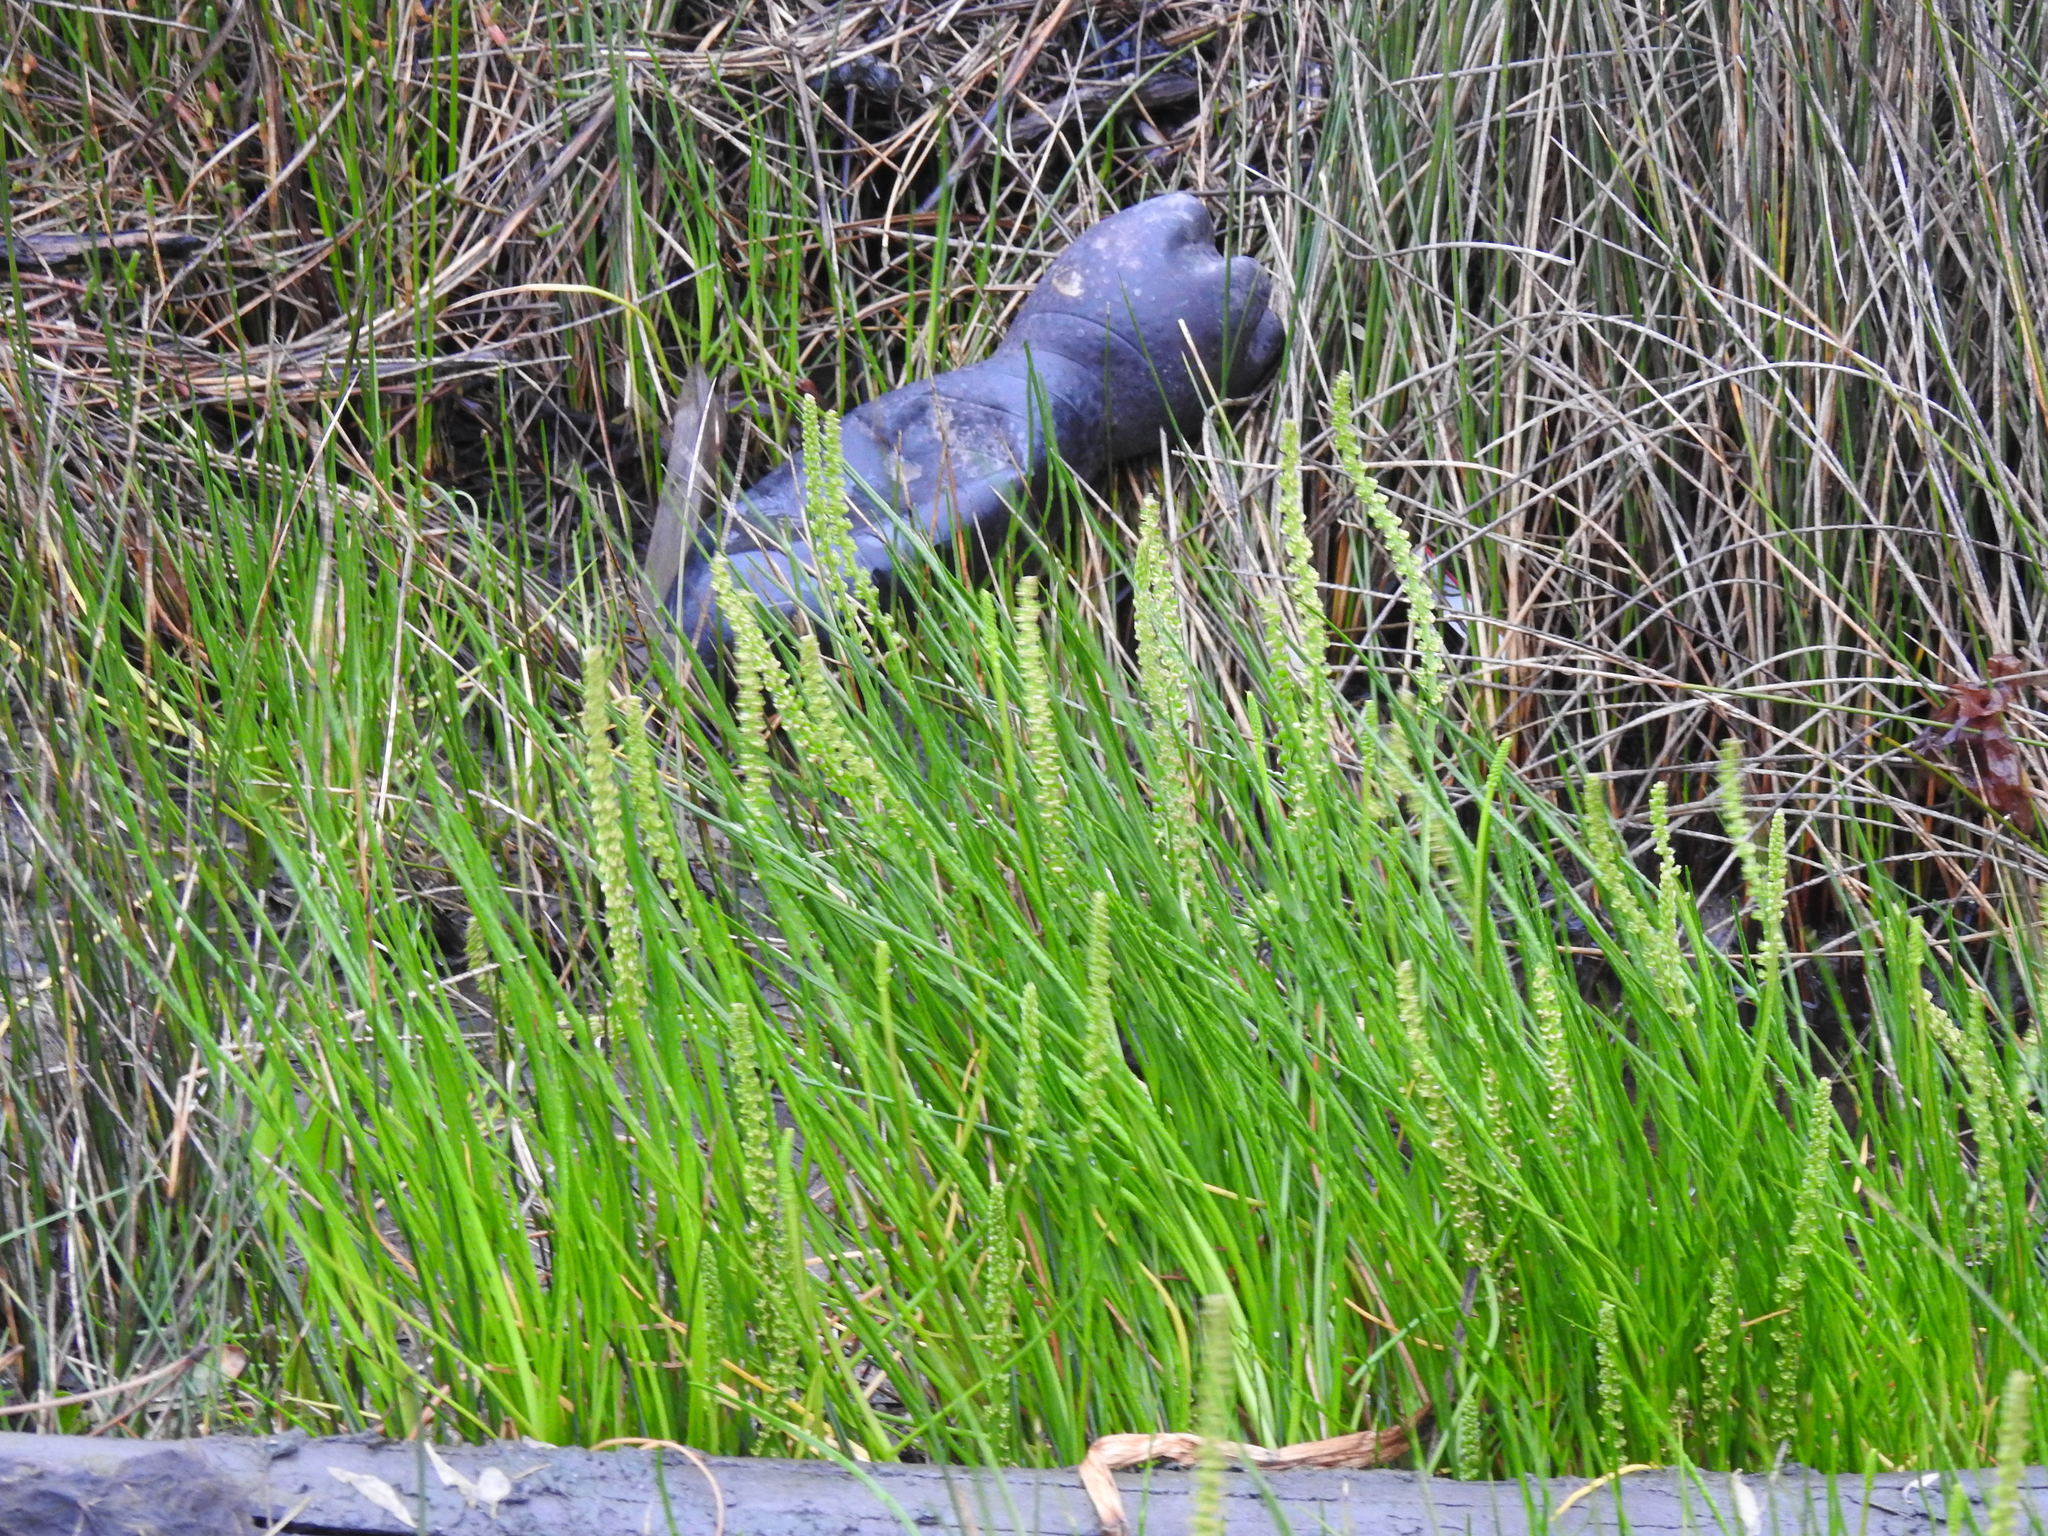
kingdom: Plantae
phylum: Tracheophyta
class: Liliopsida
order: Alismatales
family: Juncaginaceae
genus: Triglochin
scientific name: Triglochin maritima
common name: Sea arrowgrass
